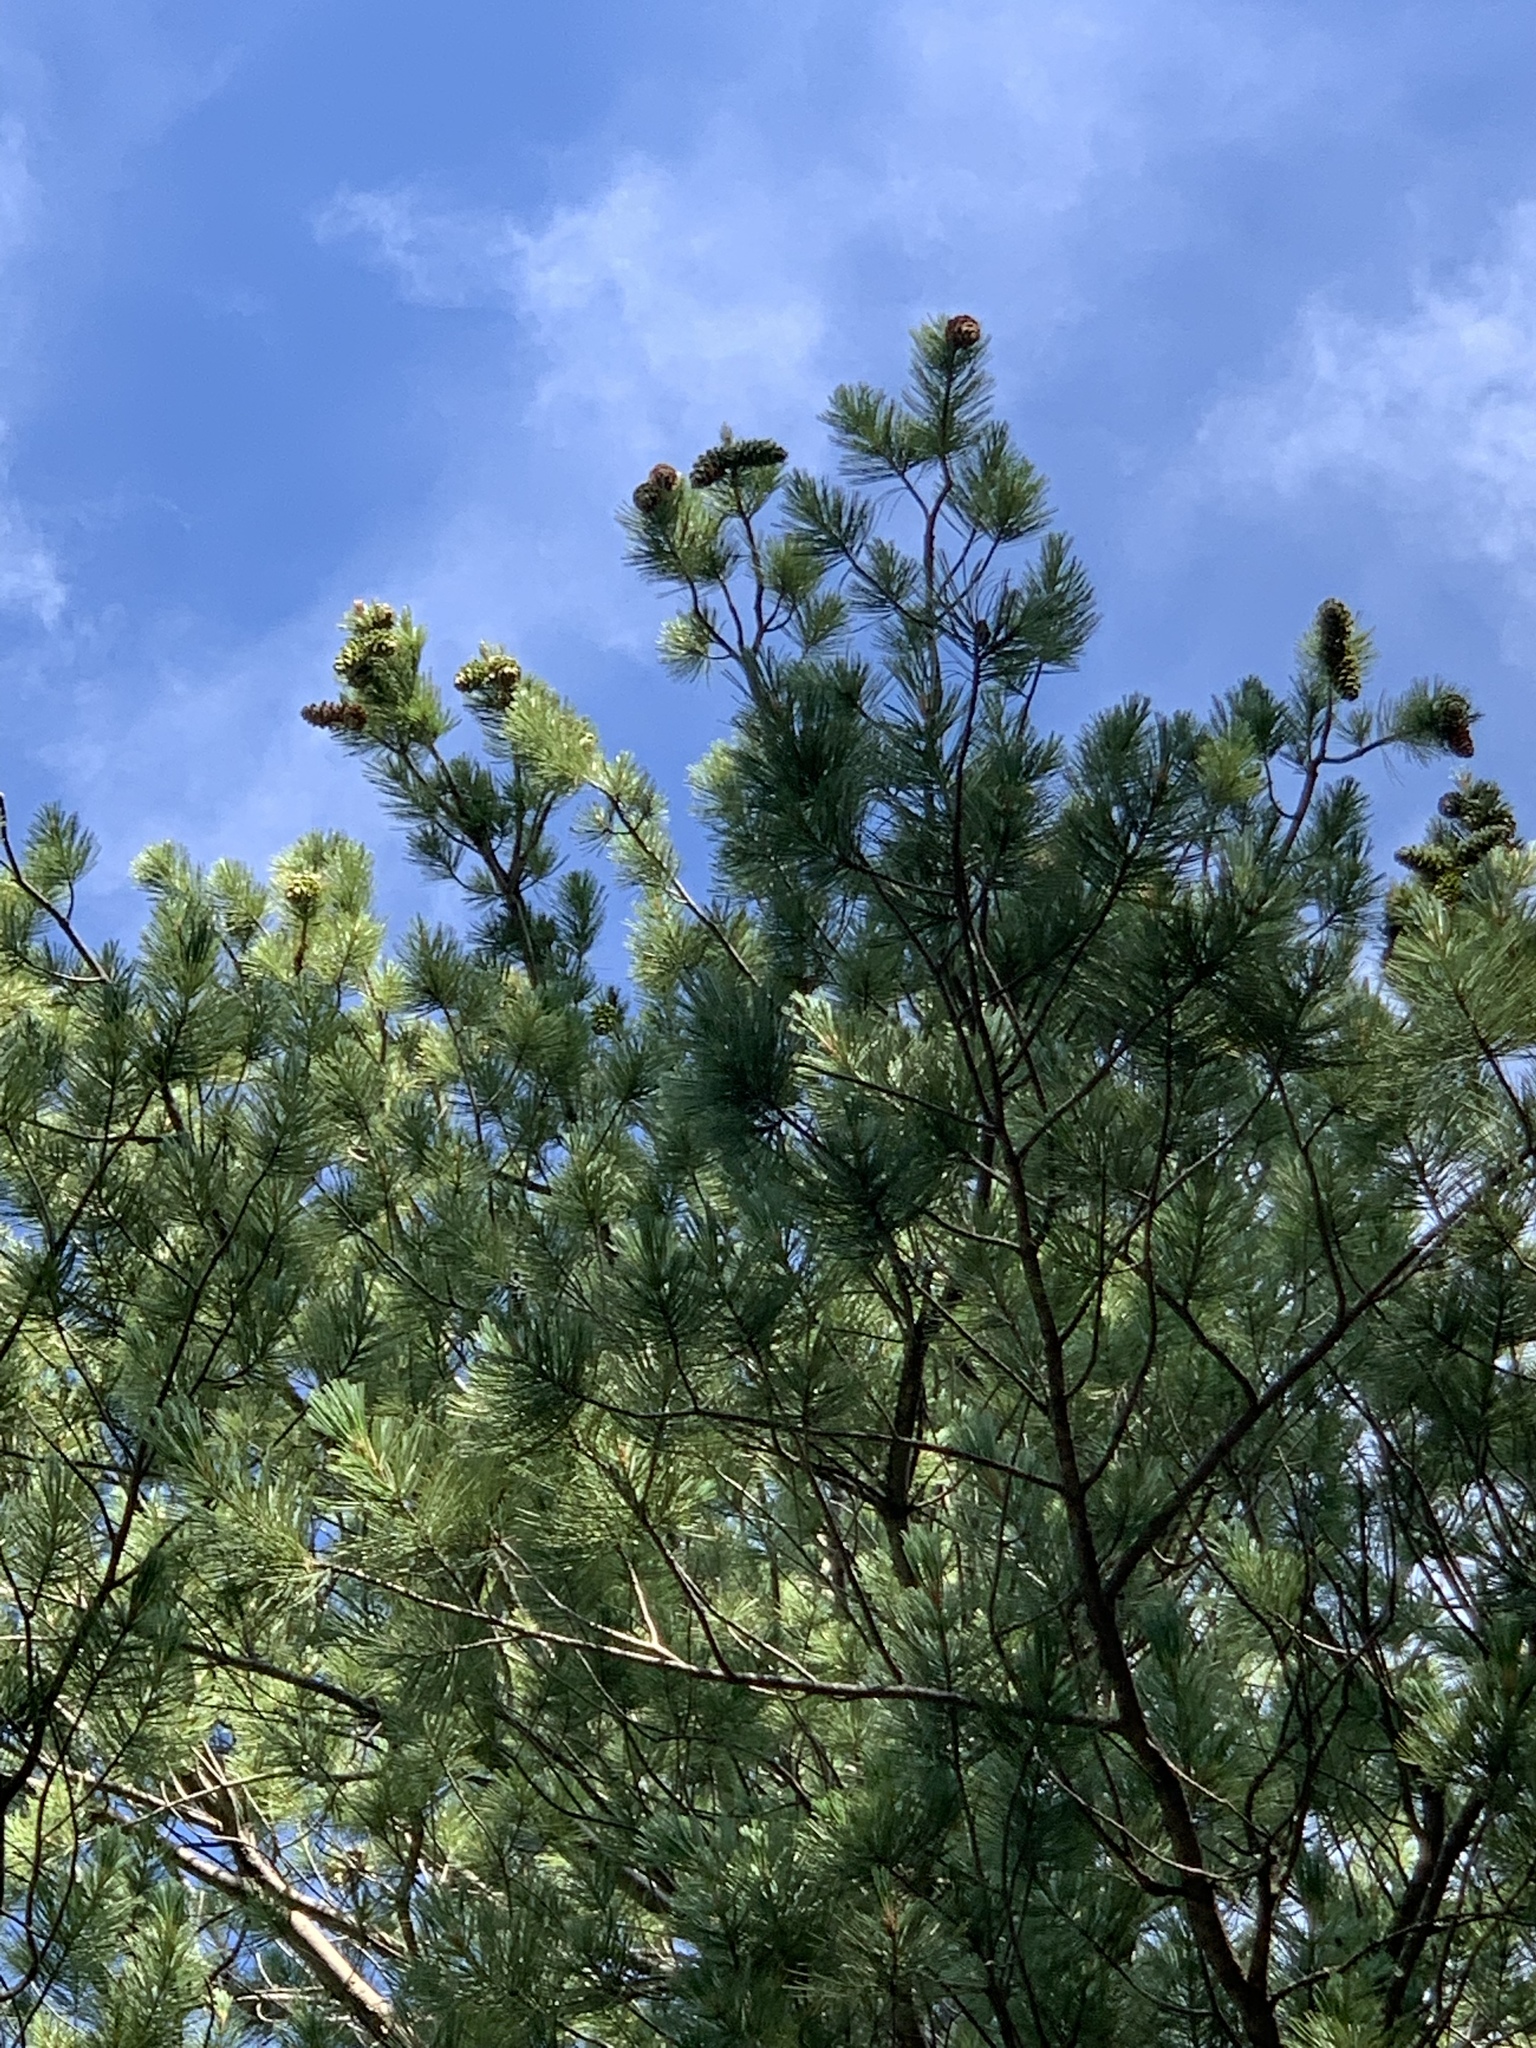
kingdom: Plantae
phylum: Tracheophyta
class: Pinopsida
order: Pinales
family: Pinaceae
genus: Pinus
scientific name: Pinus strobiformis
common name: Southwestern white pine
